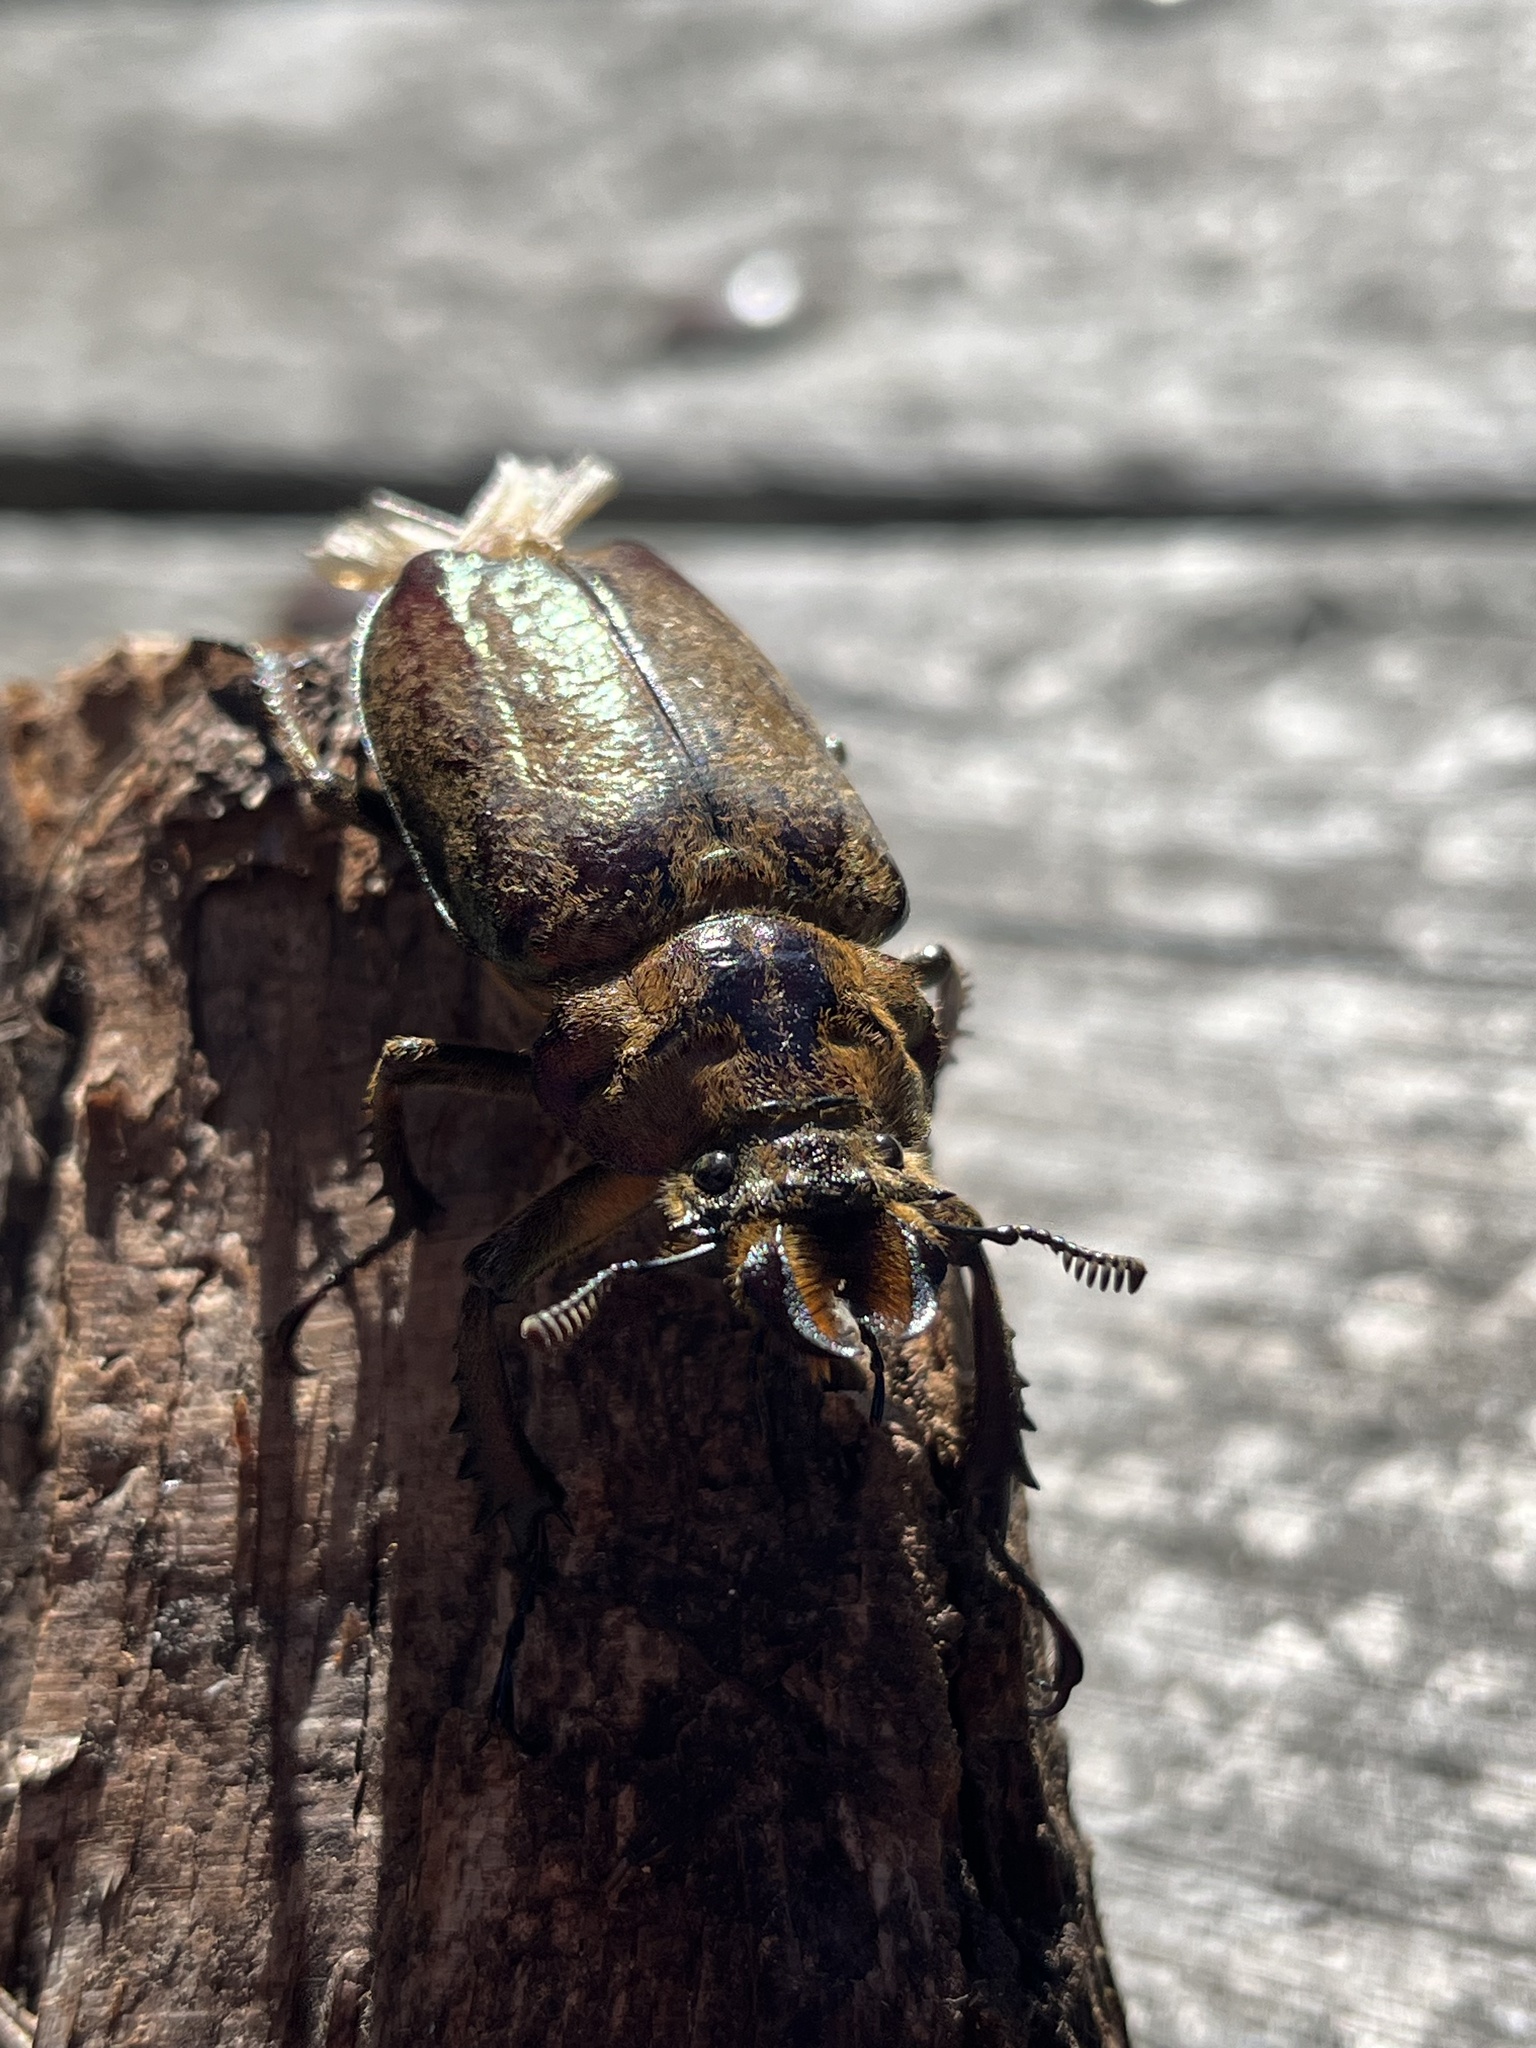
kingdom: Animalia
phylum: Arthropoda
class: Insecta
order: Coleoptera
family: Lucanidae
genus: Sphaenognathus
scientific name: Sphaenognathus feisthamelii
